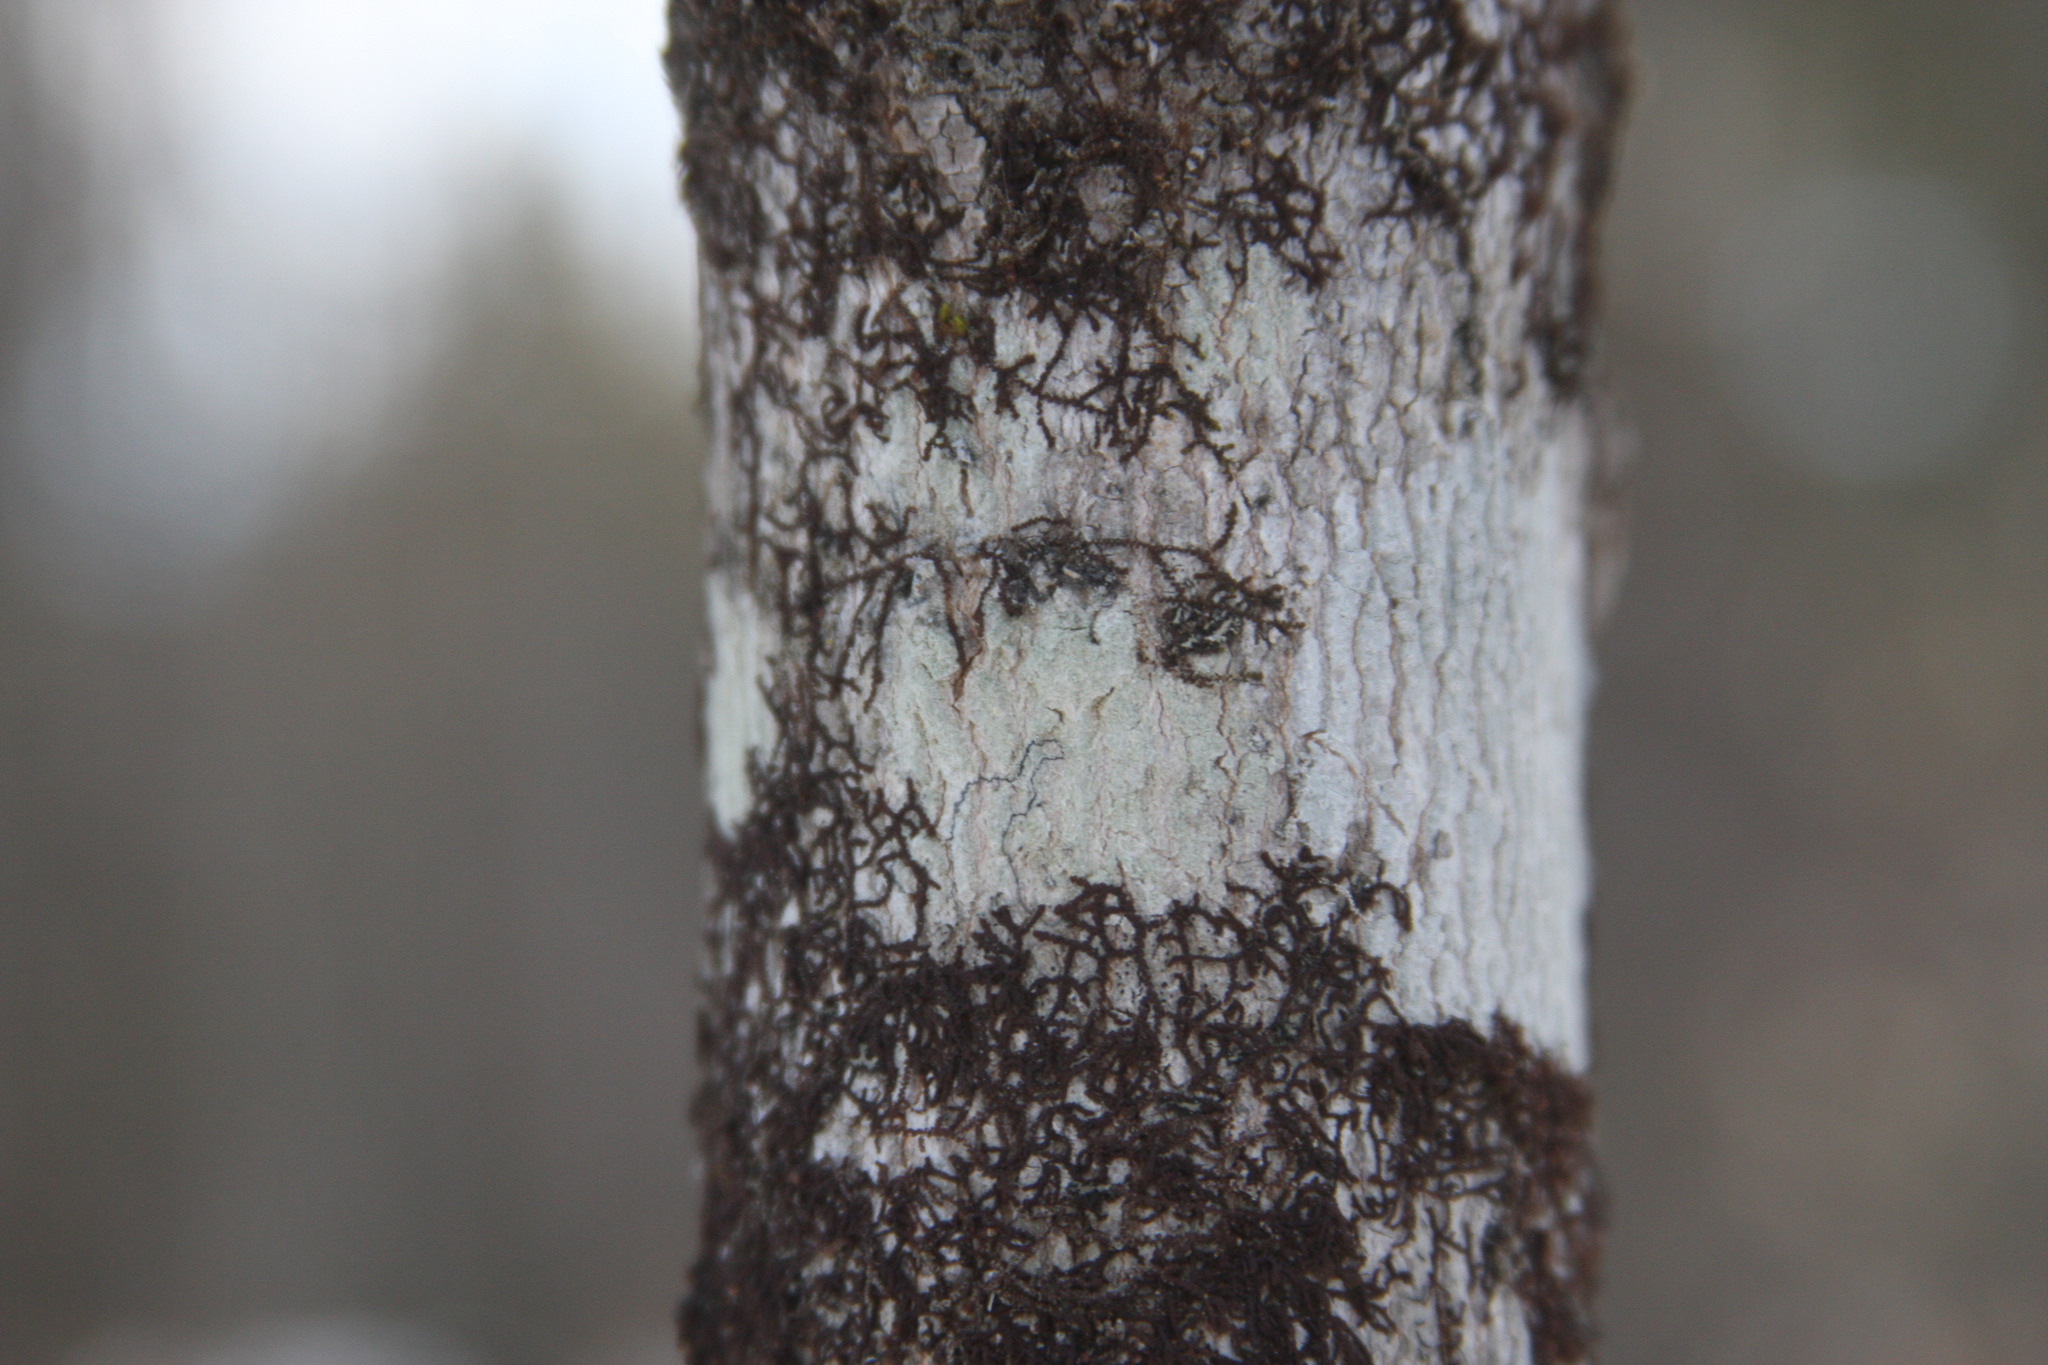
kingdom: Plantae
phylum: Marchantiophyta
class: Jungermanniopsida
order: Porellales
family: Frullaniaceae
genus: Frullania
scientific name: Frullania eboracensis
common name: New york scalewort
